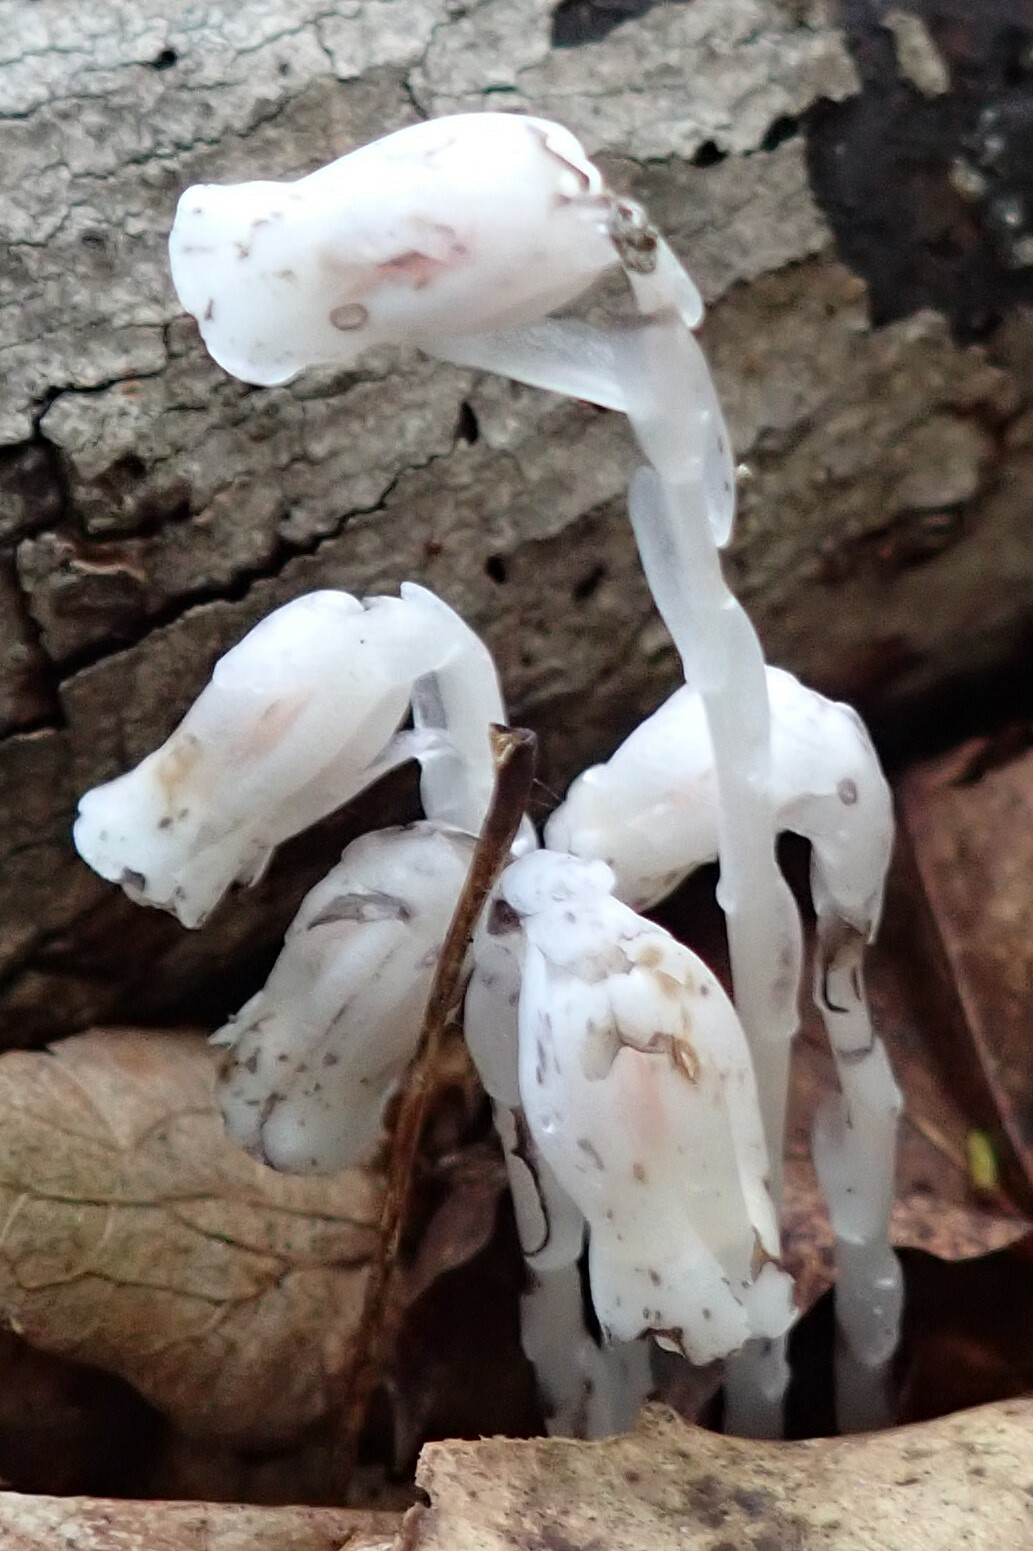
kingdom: Plantae
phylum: Tracheophyta
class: Magnoliopsida
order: Ericales
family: Ericaceae
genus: Monotropa
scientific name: Monotropa uniflora
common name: Convulsion root
